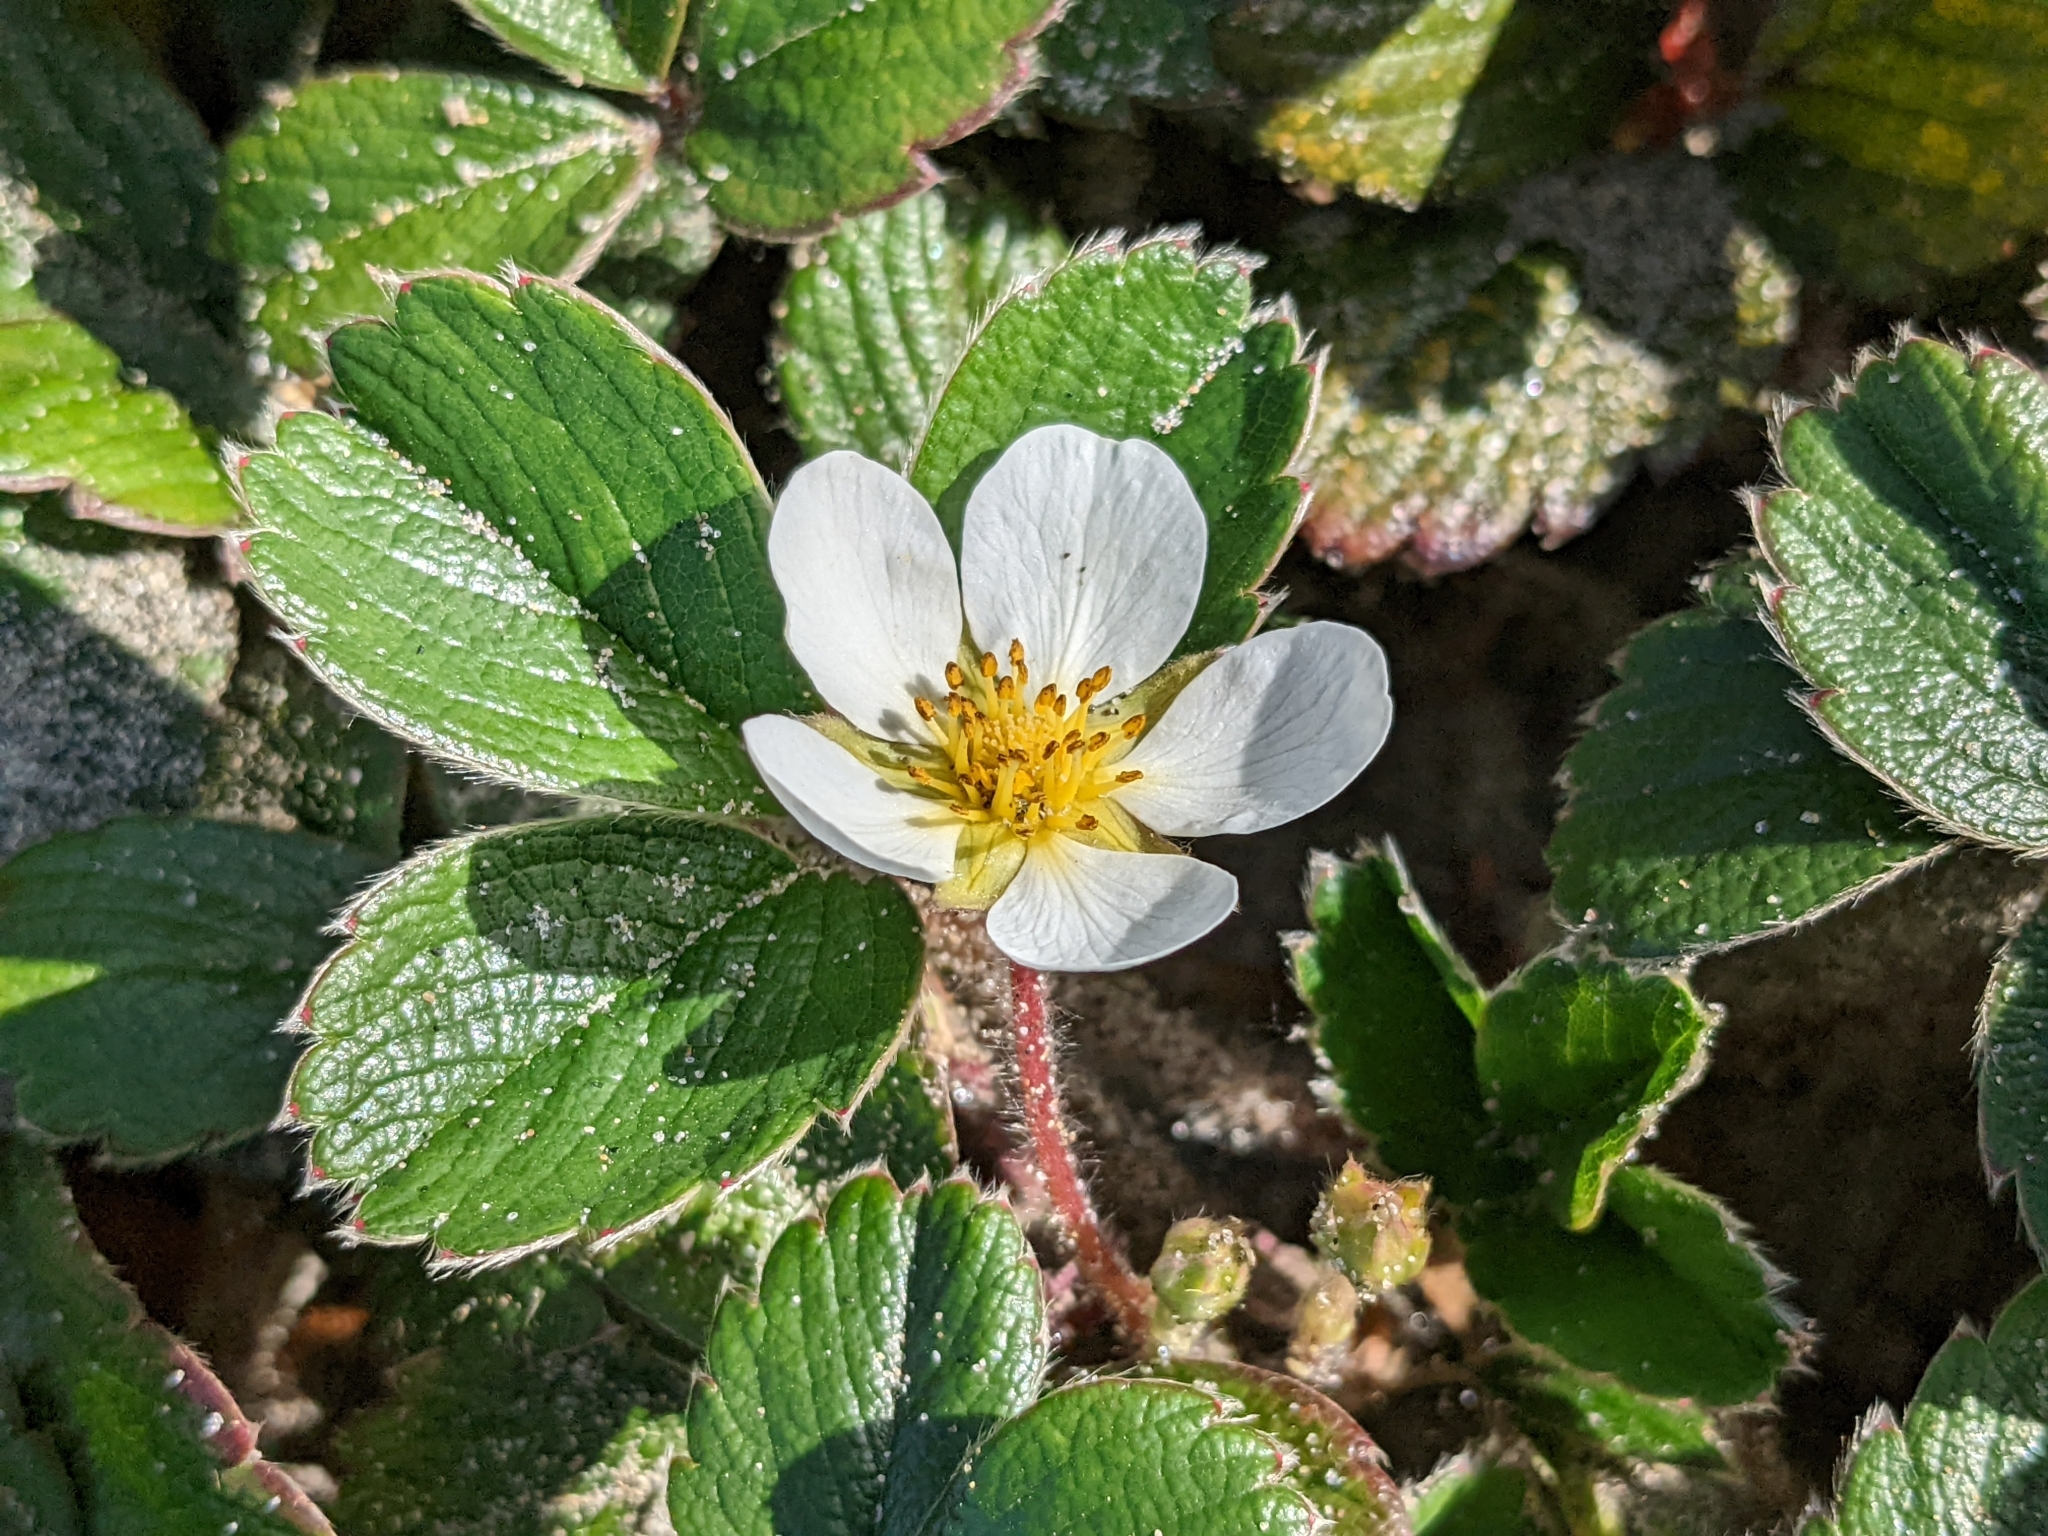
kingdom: Plantae
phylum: Tracheophyta
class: Magnoliopsida
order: Rosales
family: Rosaceae
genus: Fragaria
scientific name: Fragaria chiloensis
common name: Beach strawberry
